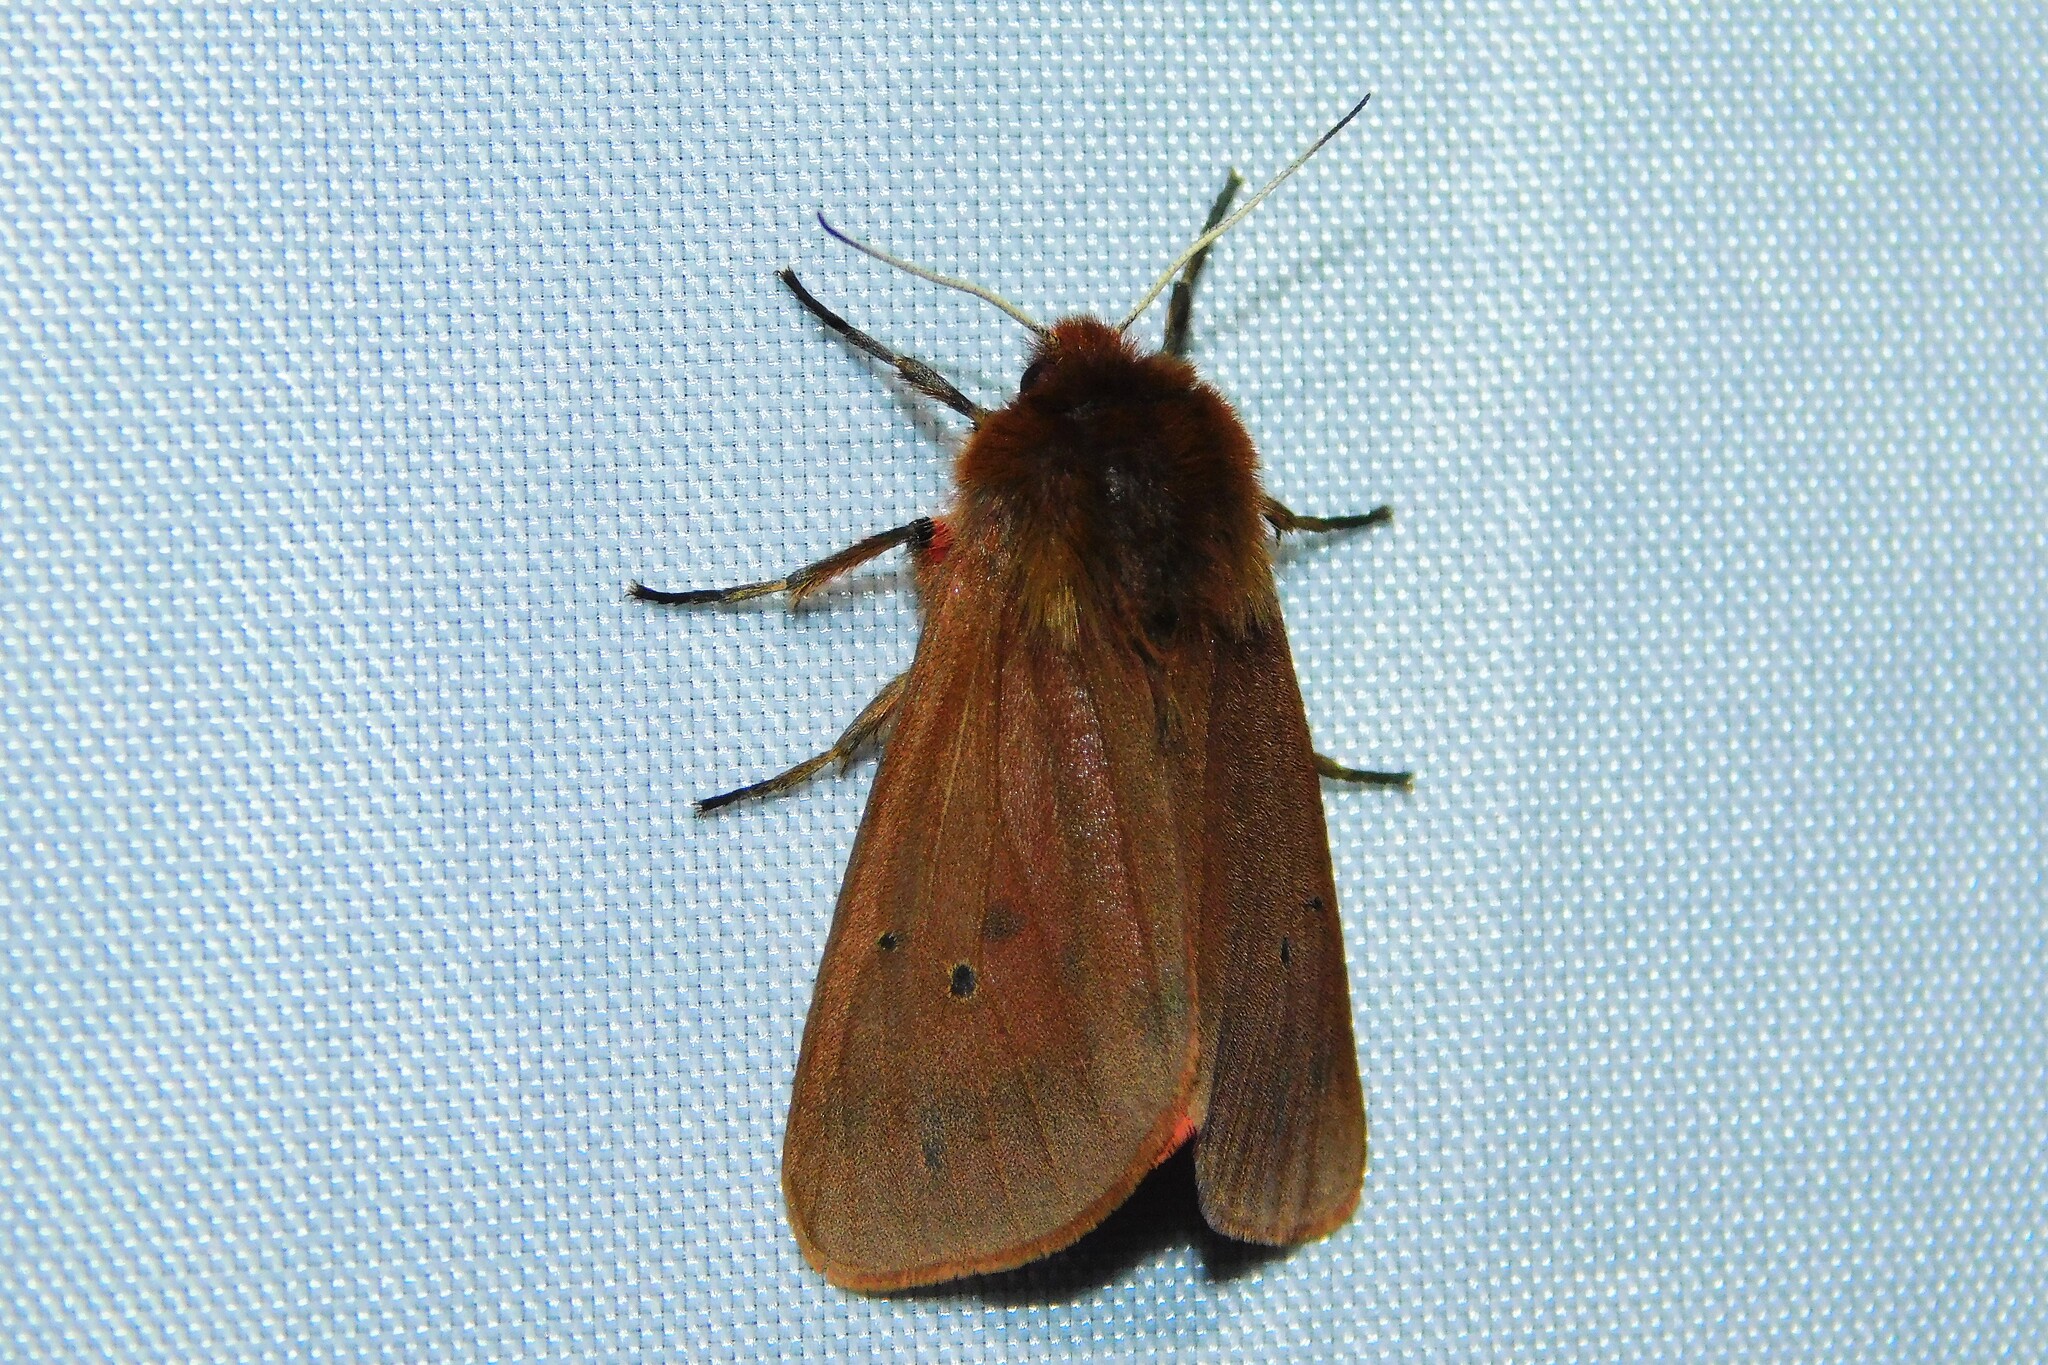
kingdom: Animalia
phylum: Arthropoda
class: Insecta
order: Lepidoptera
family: Erebidae
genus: Phragmatobia
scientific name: Phragmatobia fuliginosa
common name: Ruby tiger
